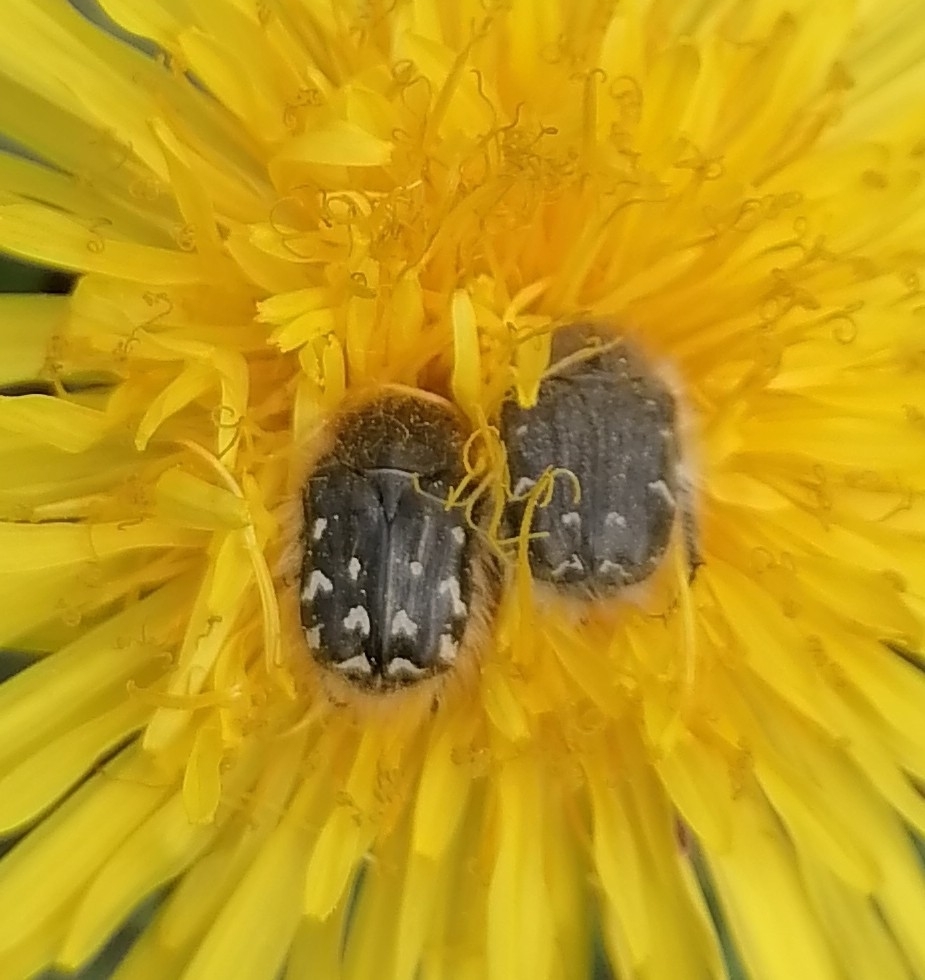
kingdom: Animalia
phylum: Arthropoda
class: Insecta
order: Coleoptera
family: Scarabaeidae
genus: Tropinota
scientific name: Tropinota hirta
